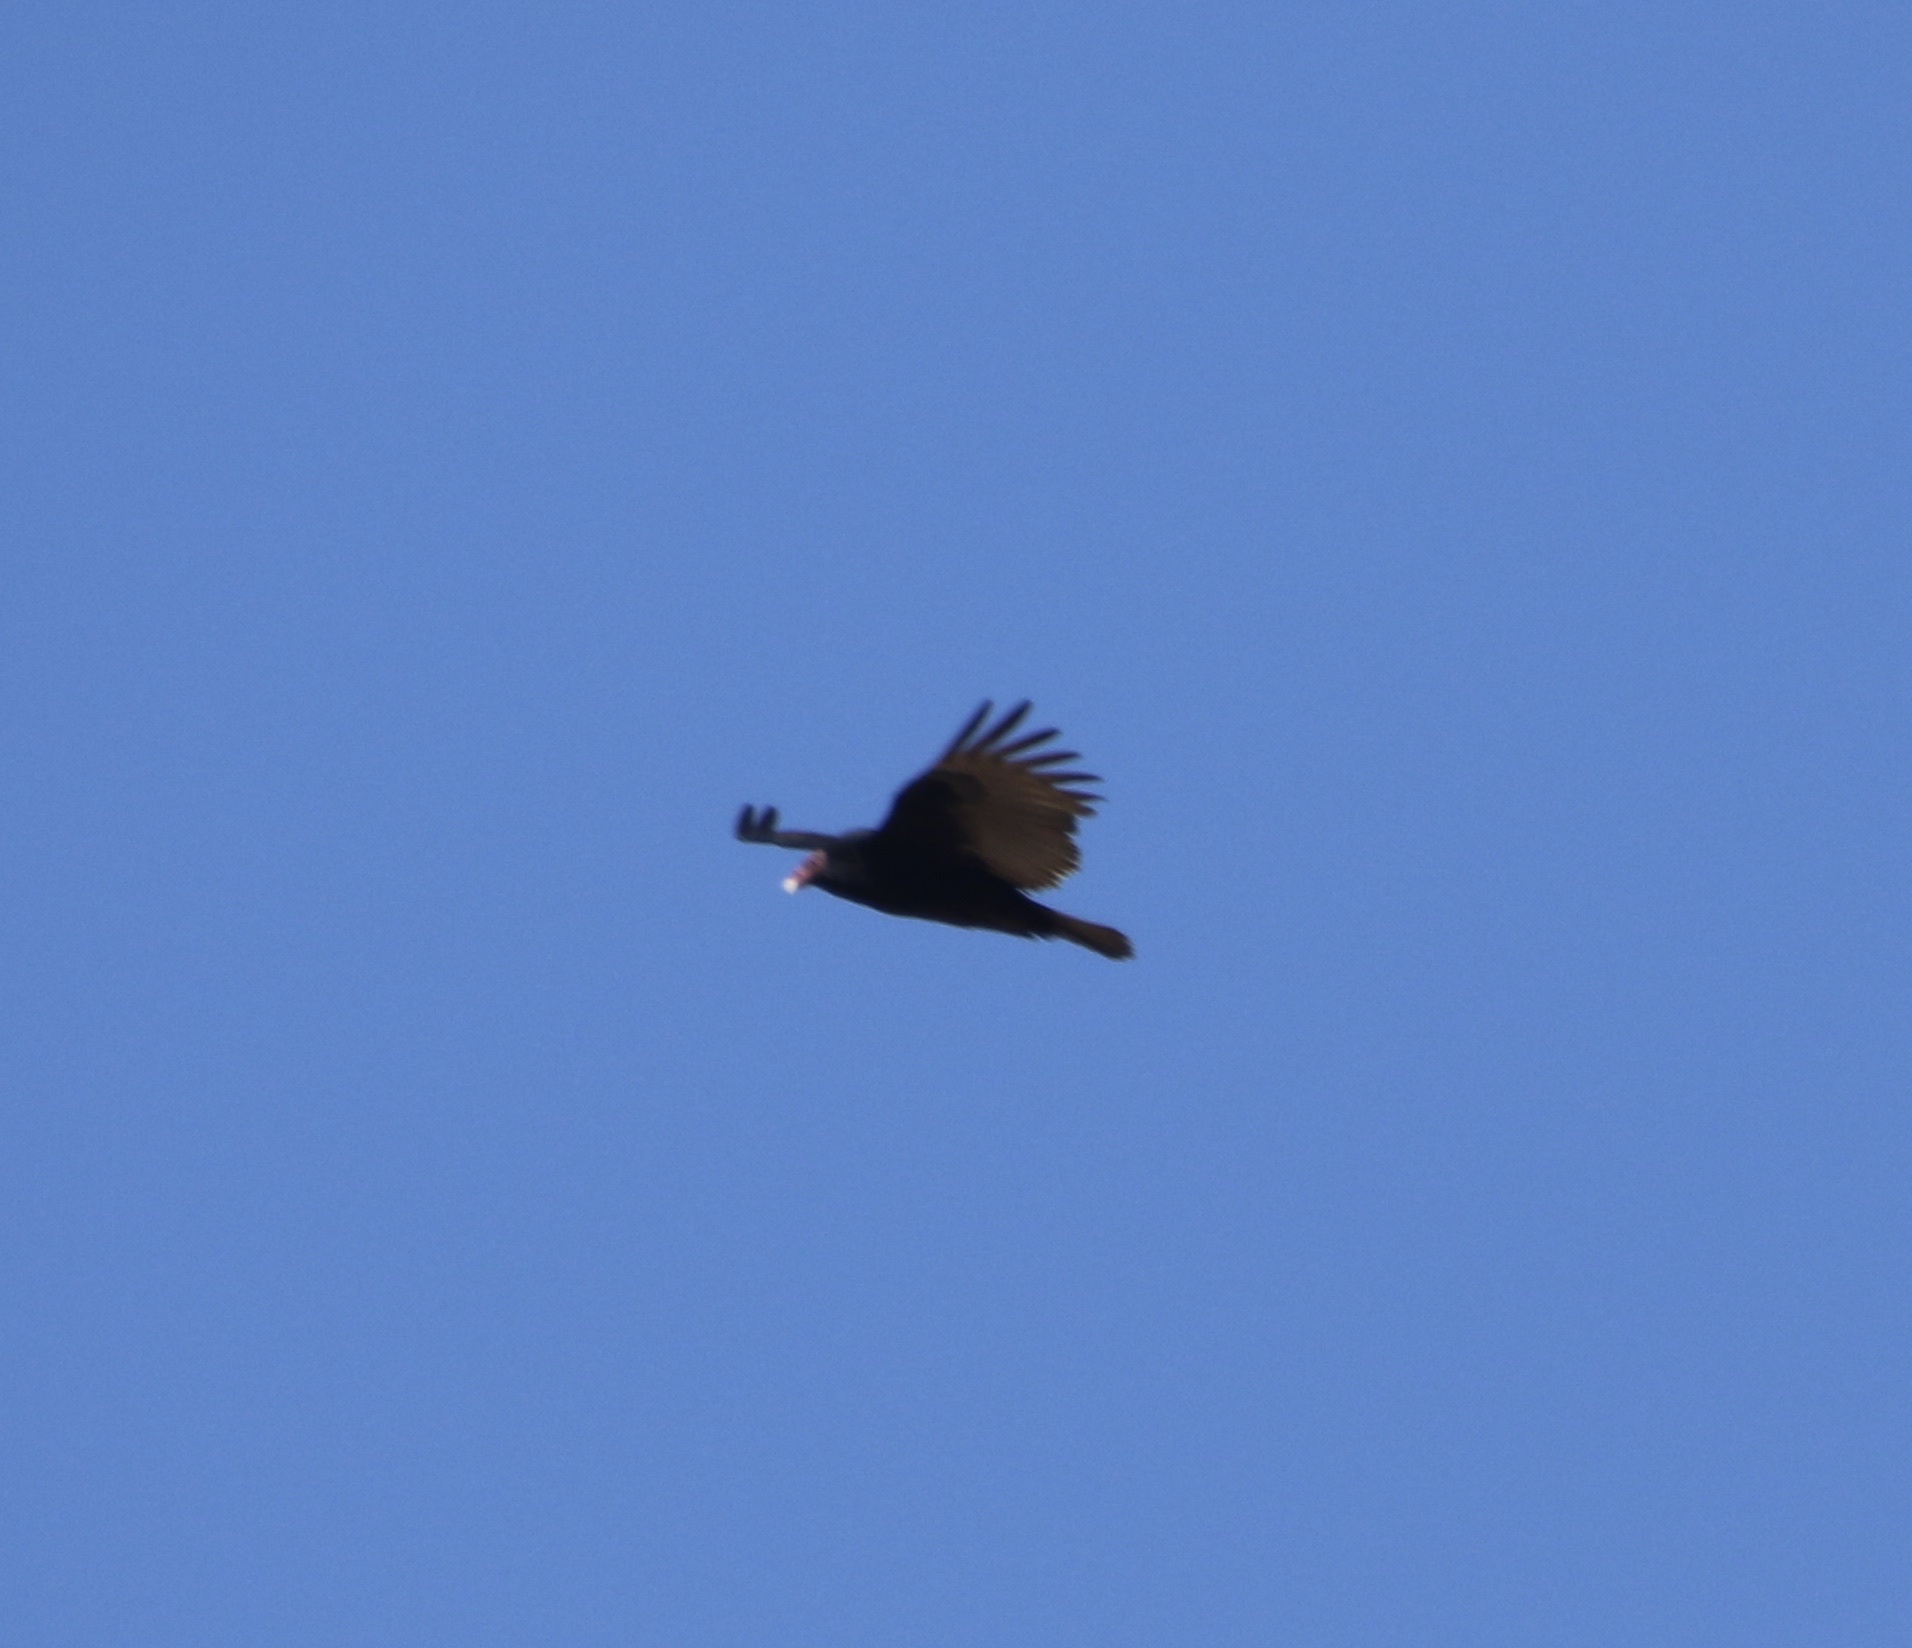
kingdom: Animalia
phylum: Chordata
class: Aves
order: Accipitriformes
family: Cathartidae
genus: Cathartes
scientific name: Cathartes aura
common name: Turkey vulture
